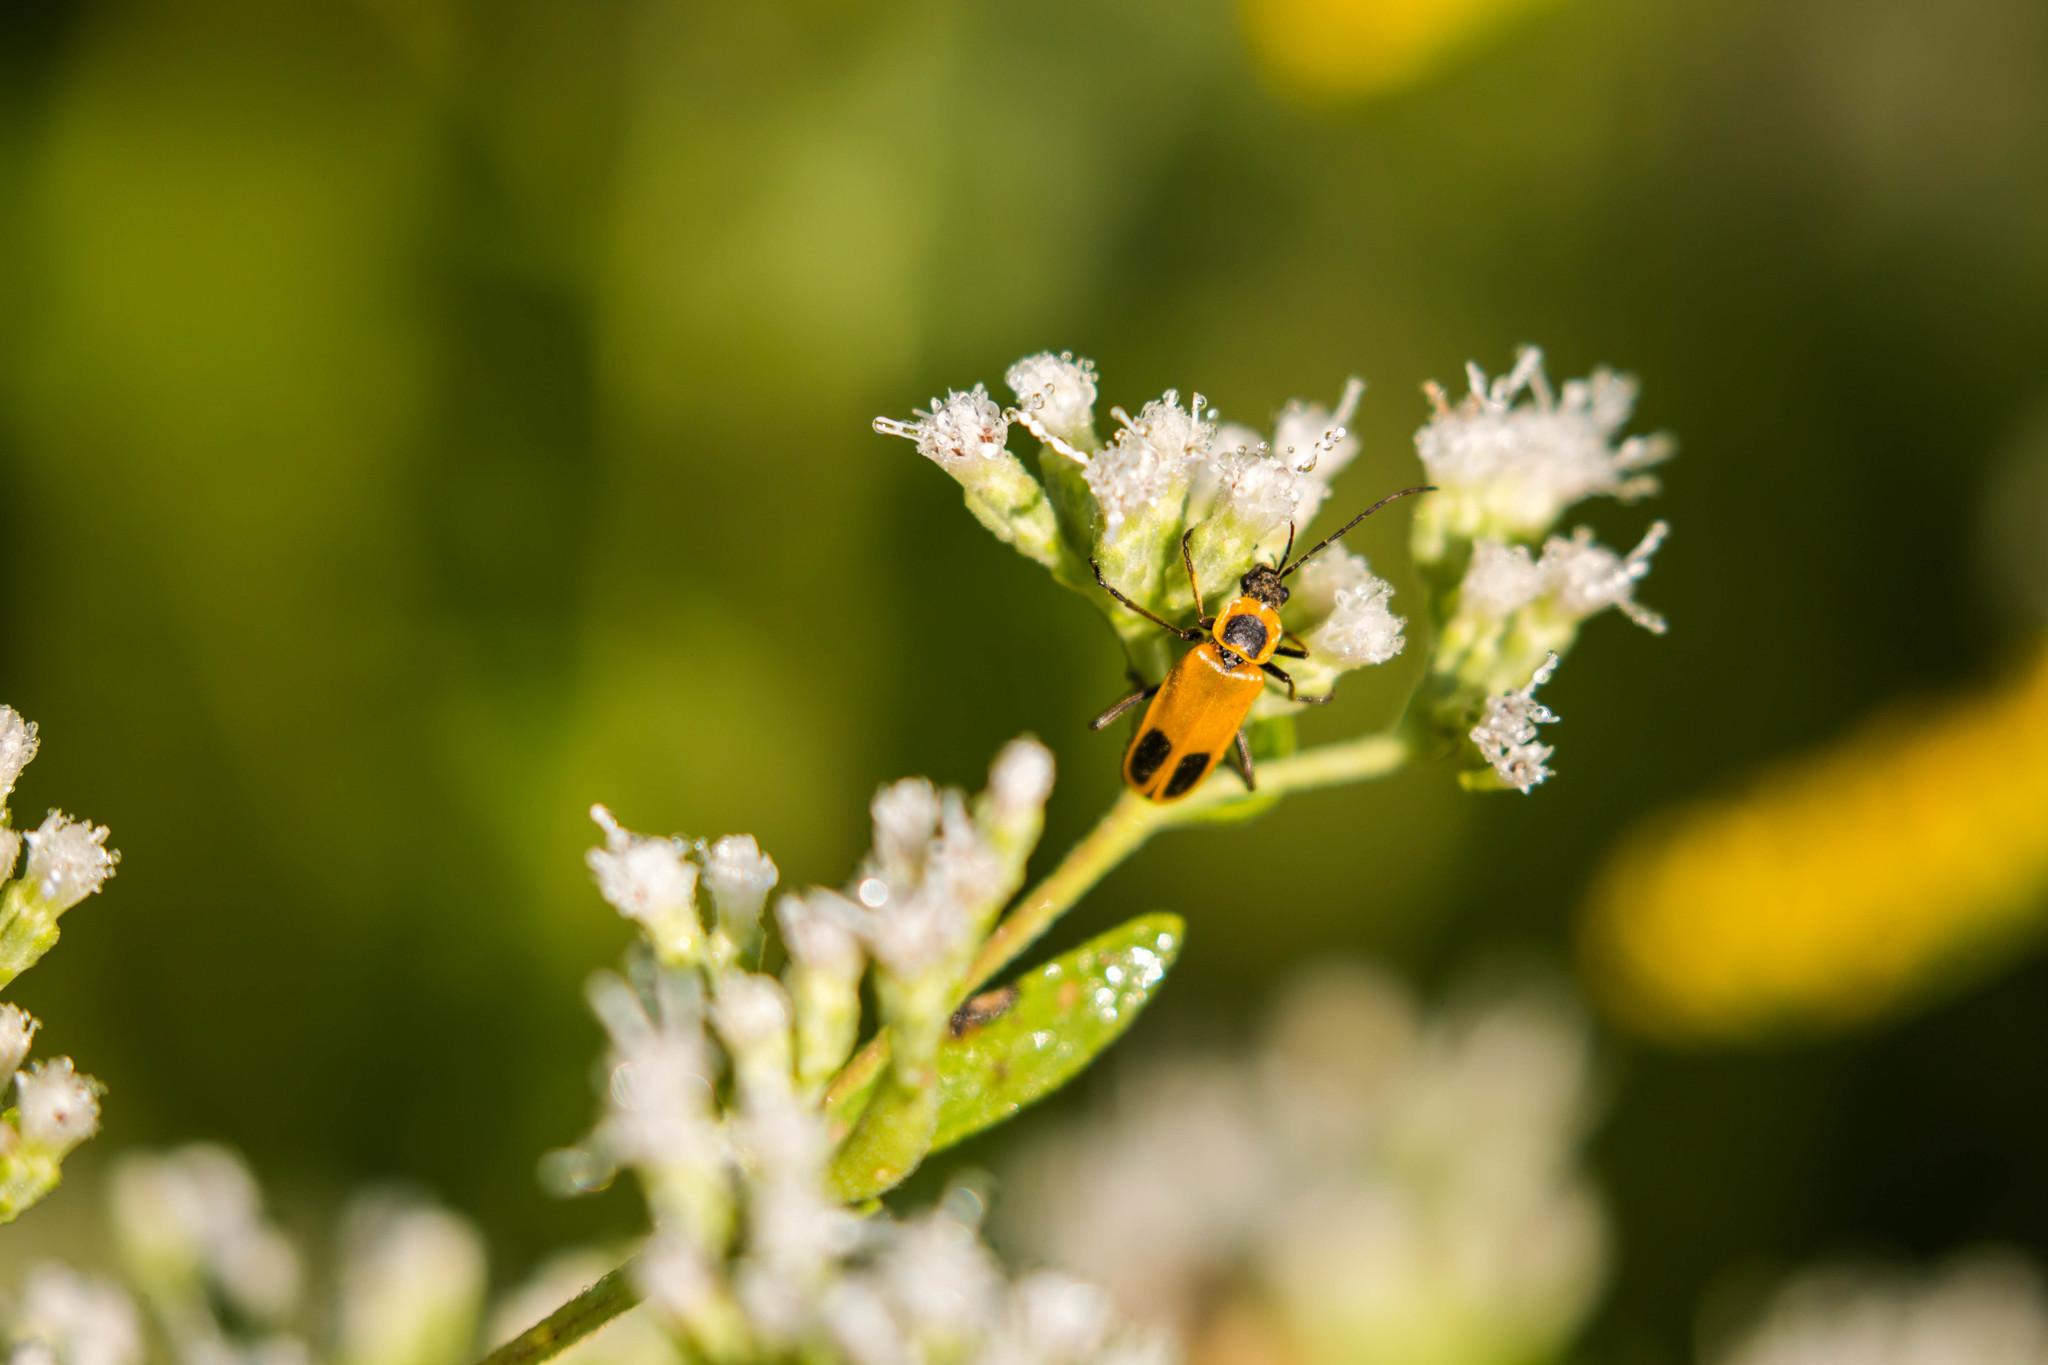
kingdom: Animalia
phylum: Arthropoda
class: Insecta
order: Coleoptera
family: Cantharidae
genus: Chauliognathus
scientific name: Chauliognathus pensylvanicus
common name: Goldenrod soldier beetle
